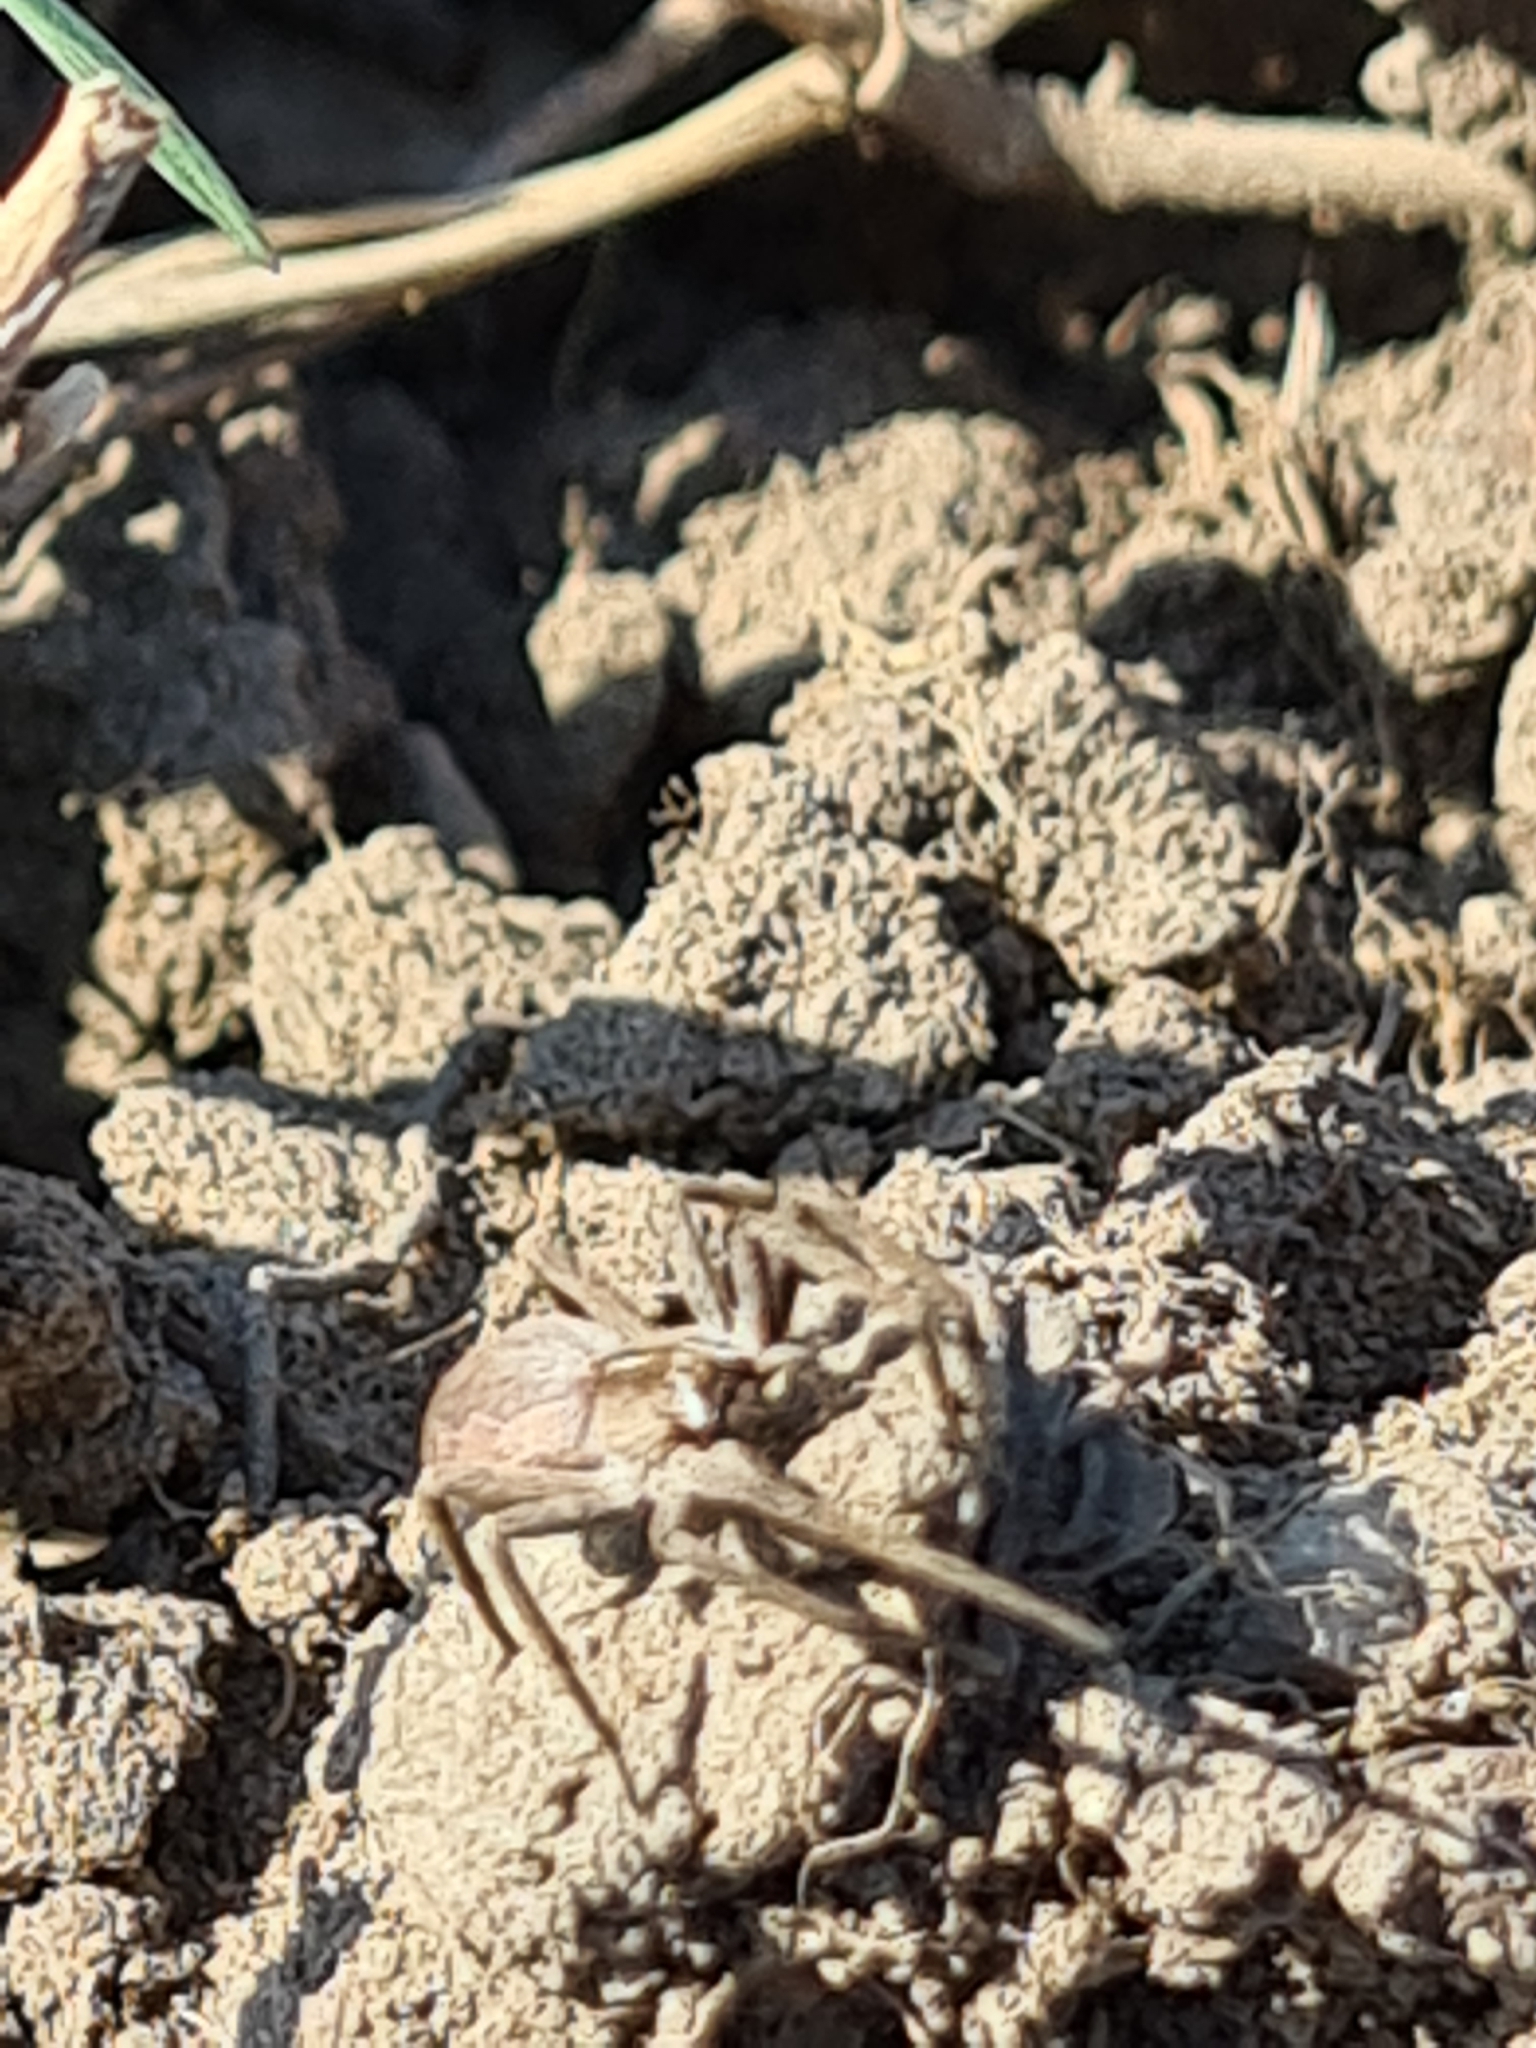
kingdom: Animalia
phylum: Arthropoda
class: Arachnida
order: Araneae
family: Pisauridae
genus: Pisaura
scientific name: Pisaura mirabilis
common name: Tent spider
